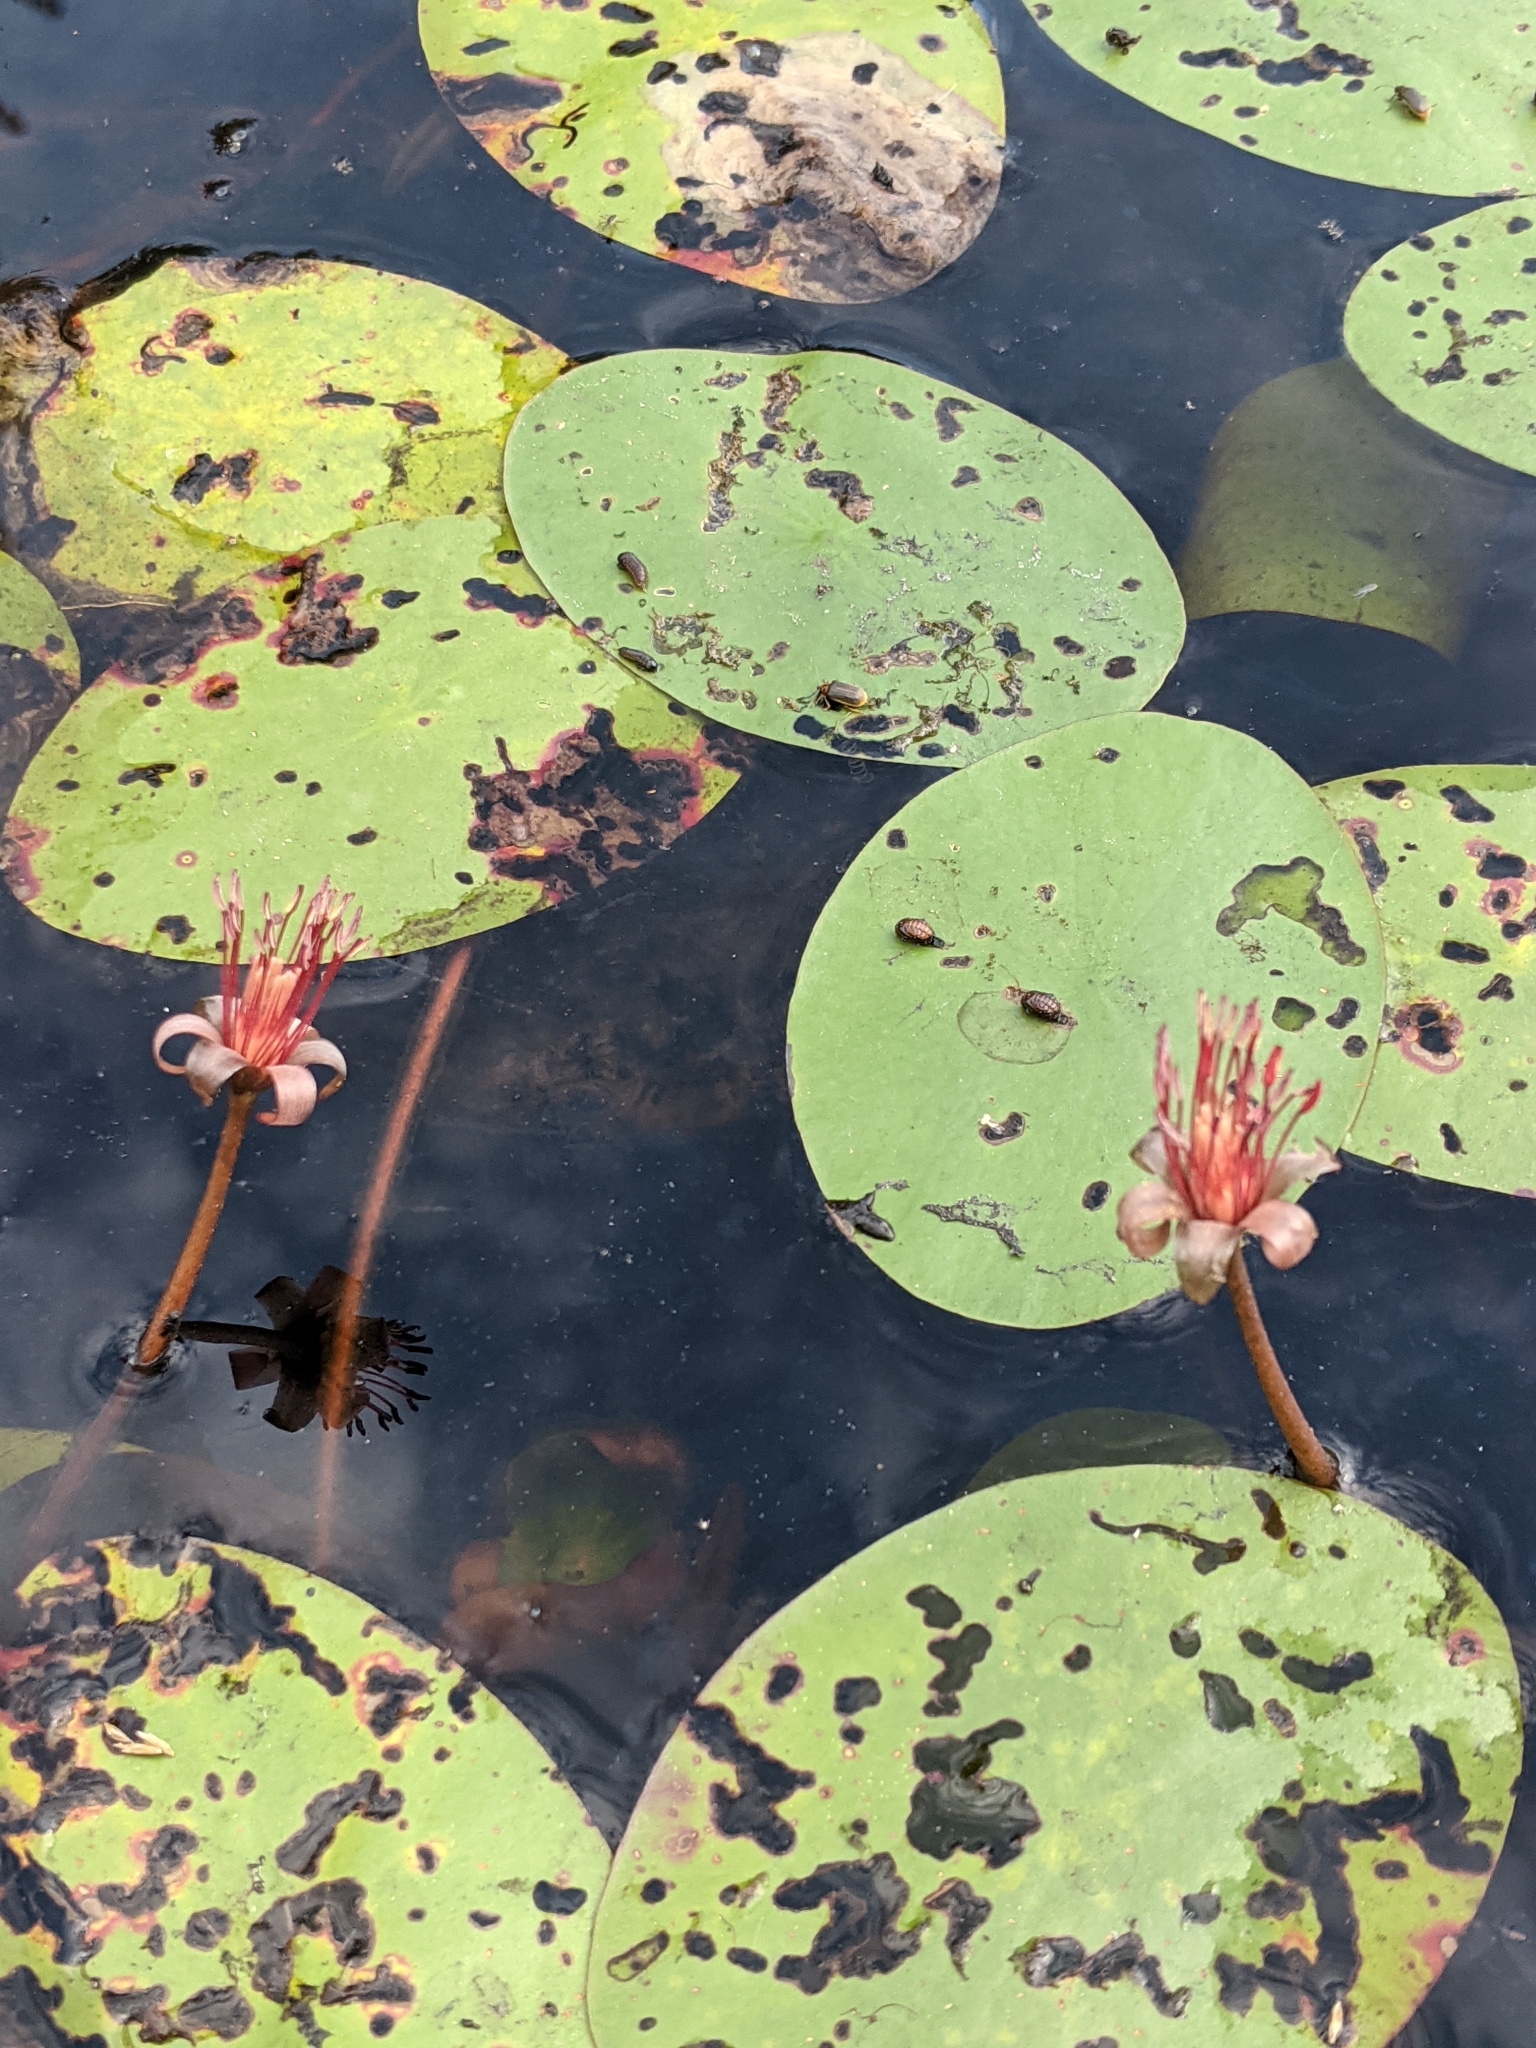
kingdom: Plantae
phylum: Tracheophyta
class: Magnoliopsida
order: Nymphaeales
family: Cabombaceae
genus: Brasenia
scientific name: Brasenia schreberi
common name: Water-shield
